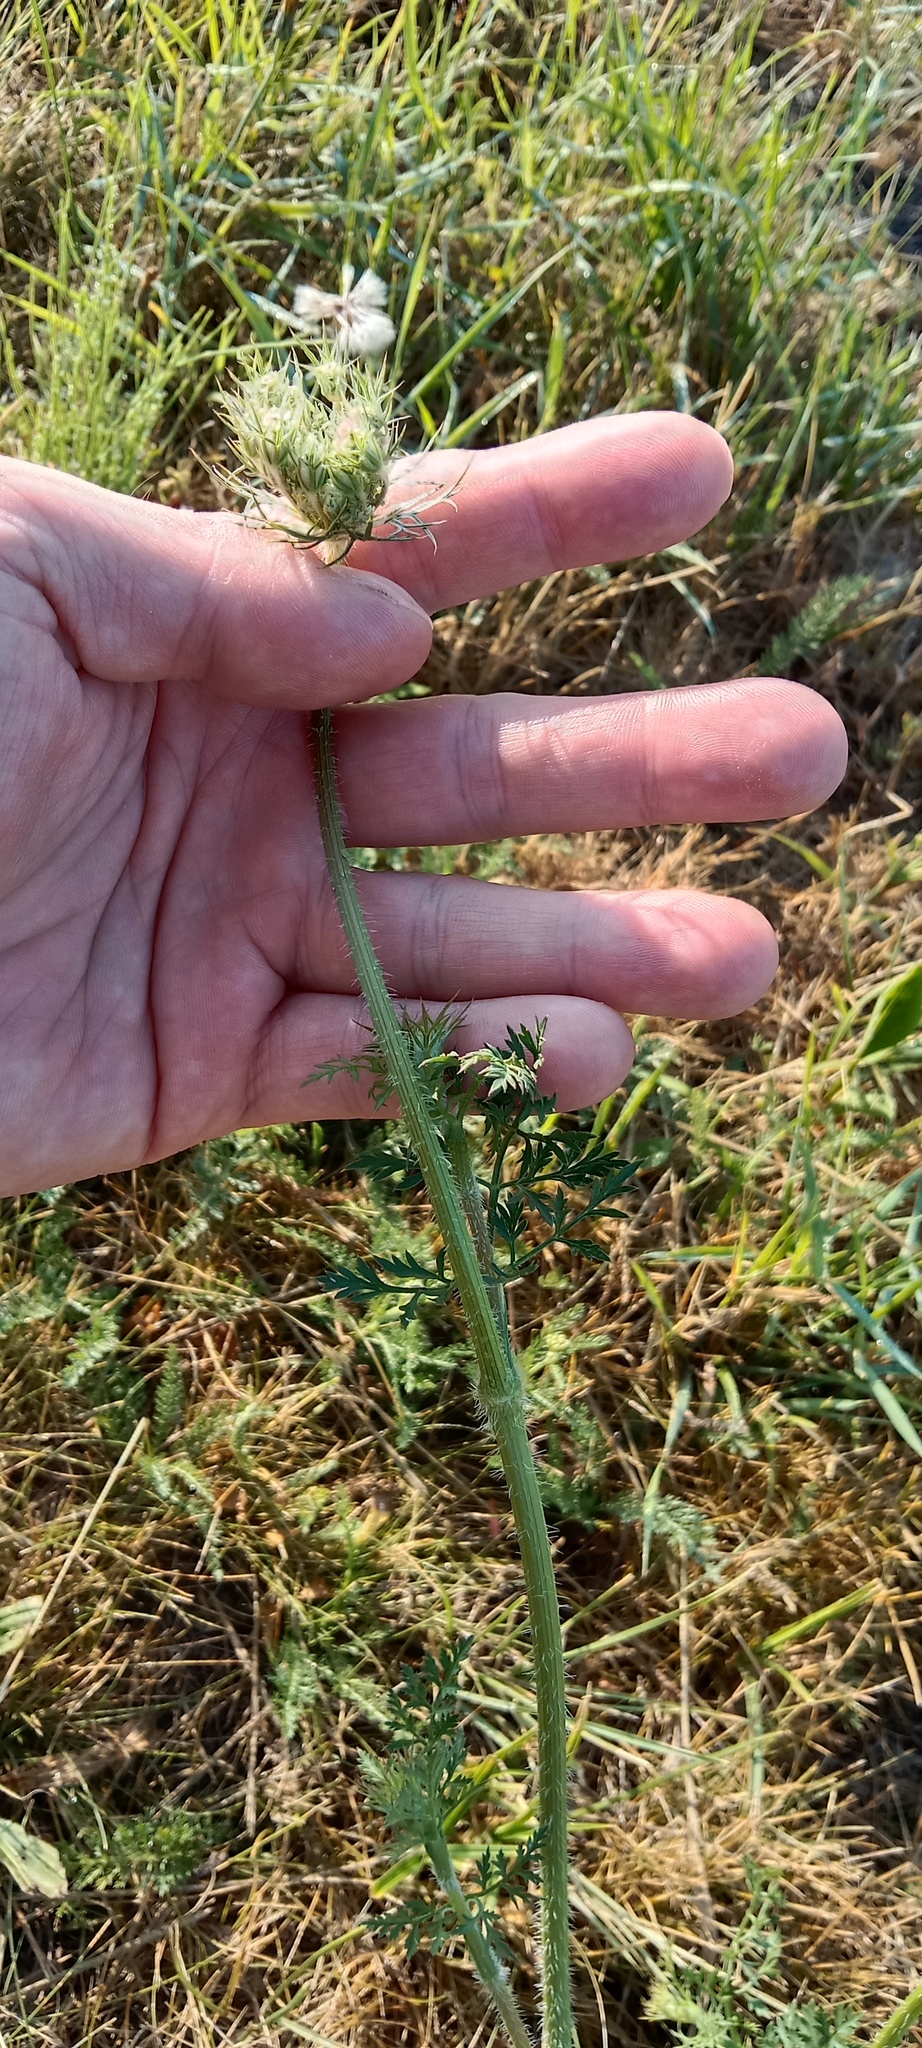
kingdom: Plantae
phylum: Tracheophyta
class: Magnoliopsida
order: Apiales
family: Apiaceae
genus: Daucus
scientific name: Daucus carota
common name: Wild carrot
